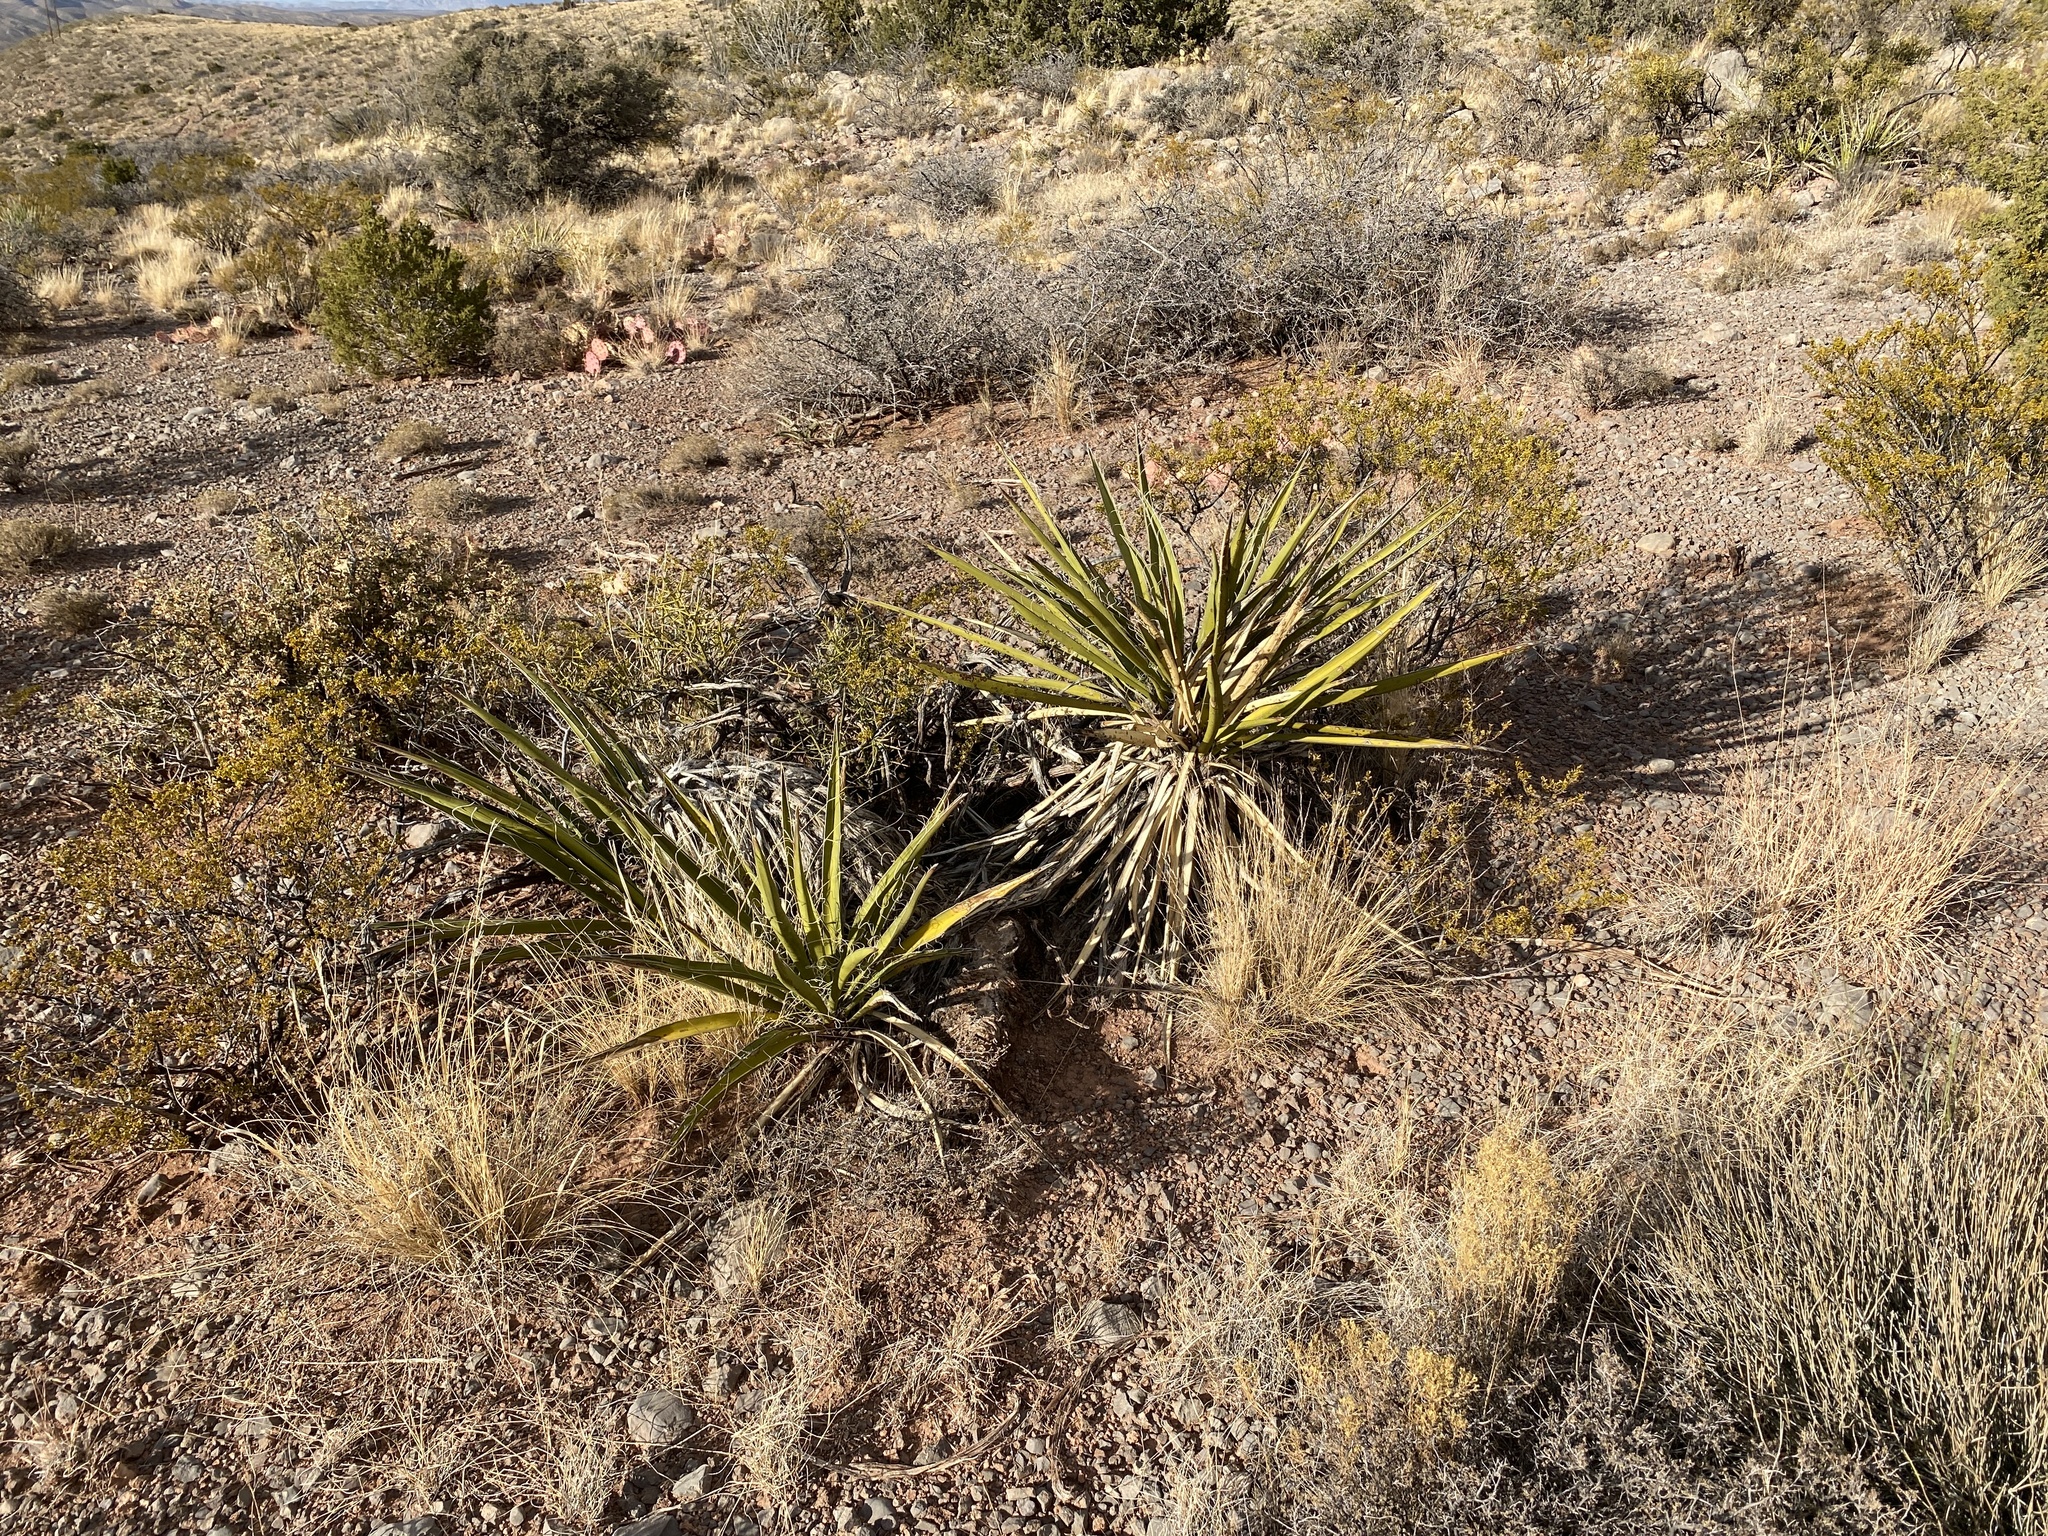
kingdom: Plantae
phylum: Tracheophyta
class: Liliopsida
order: Asparagales
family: Asparagaceae
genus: Yucca
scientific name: Yucca baccata
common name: Banana yucca
